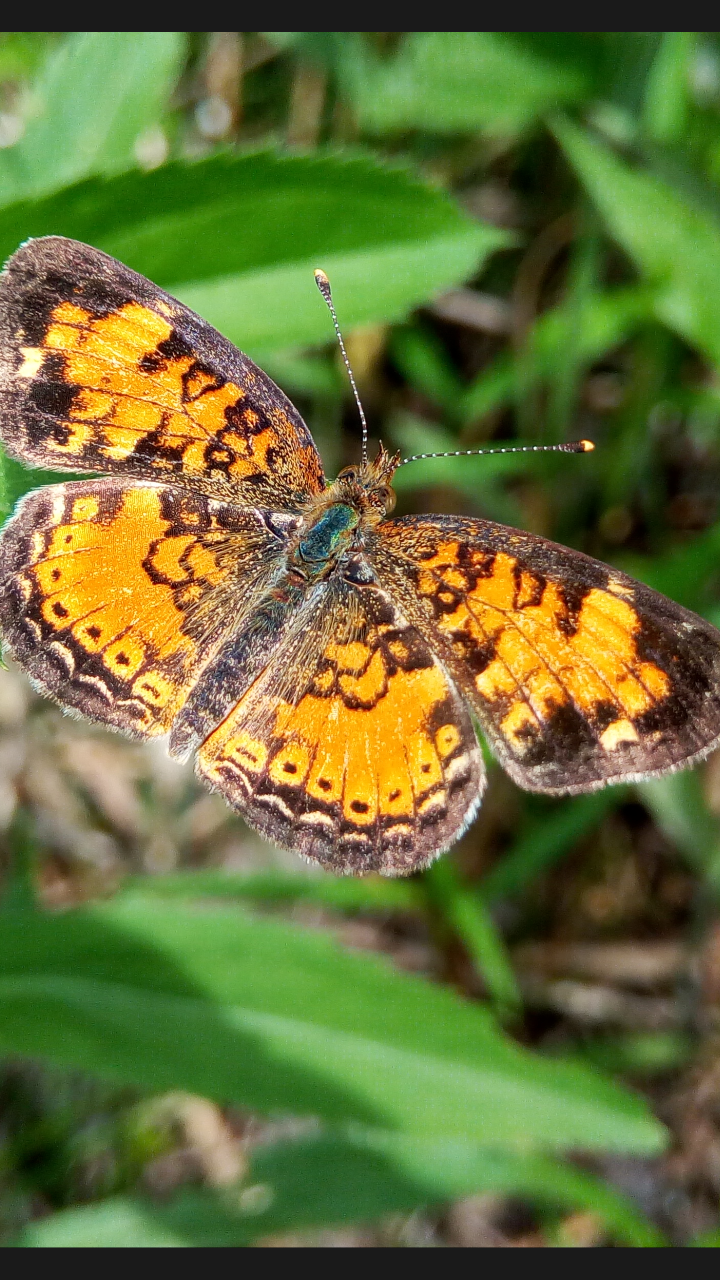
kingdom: Animalia
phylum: Arthropoda
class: Insecta
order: Lepidoptera
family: Nymphalidae
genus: Phyciodes
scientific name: Phyciodes tharos
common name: Pearl crescent
